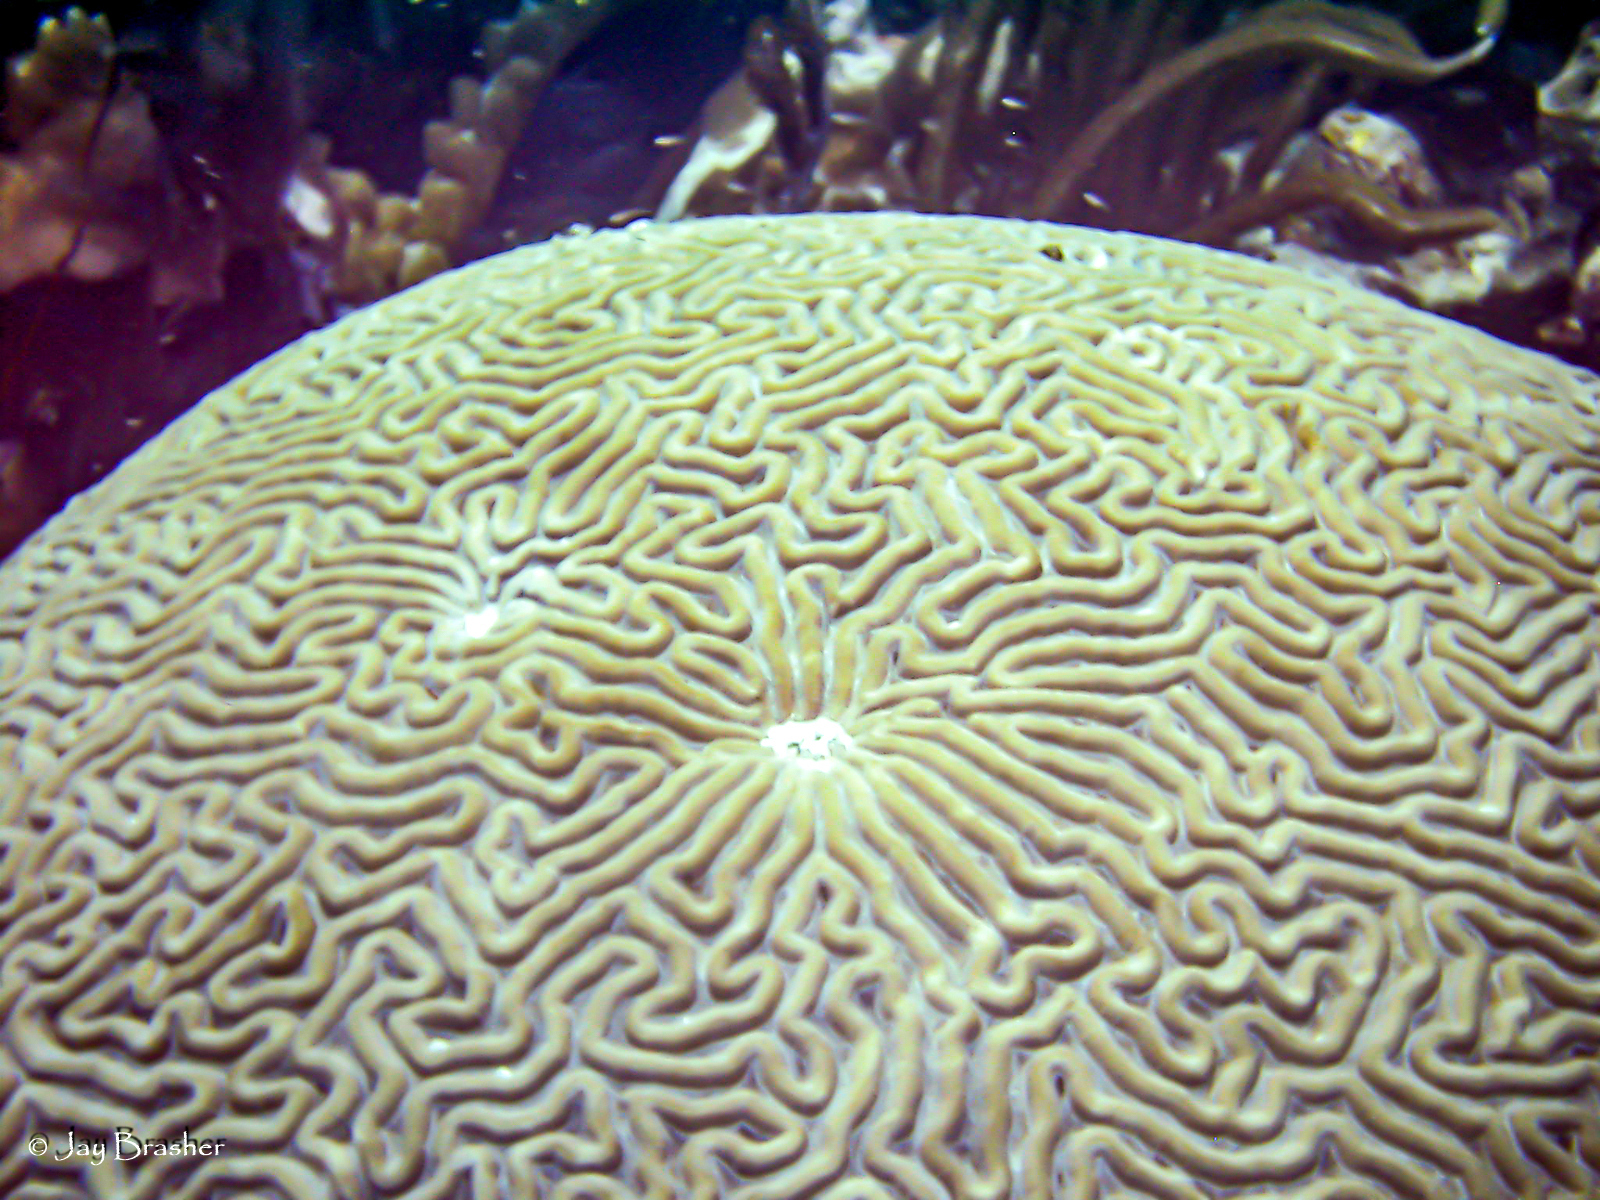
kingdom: Animalia
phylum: Cnidaria
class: Anthozoa
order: Scleractinia
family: Faviidae
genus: Pseudodiploria
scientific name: Pseudodiploria strigosa
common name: Symmetrical brain coral
